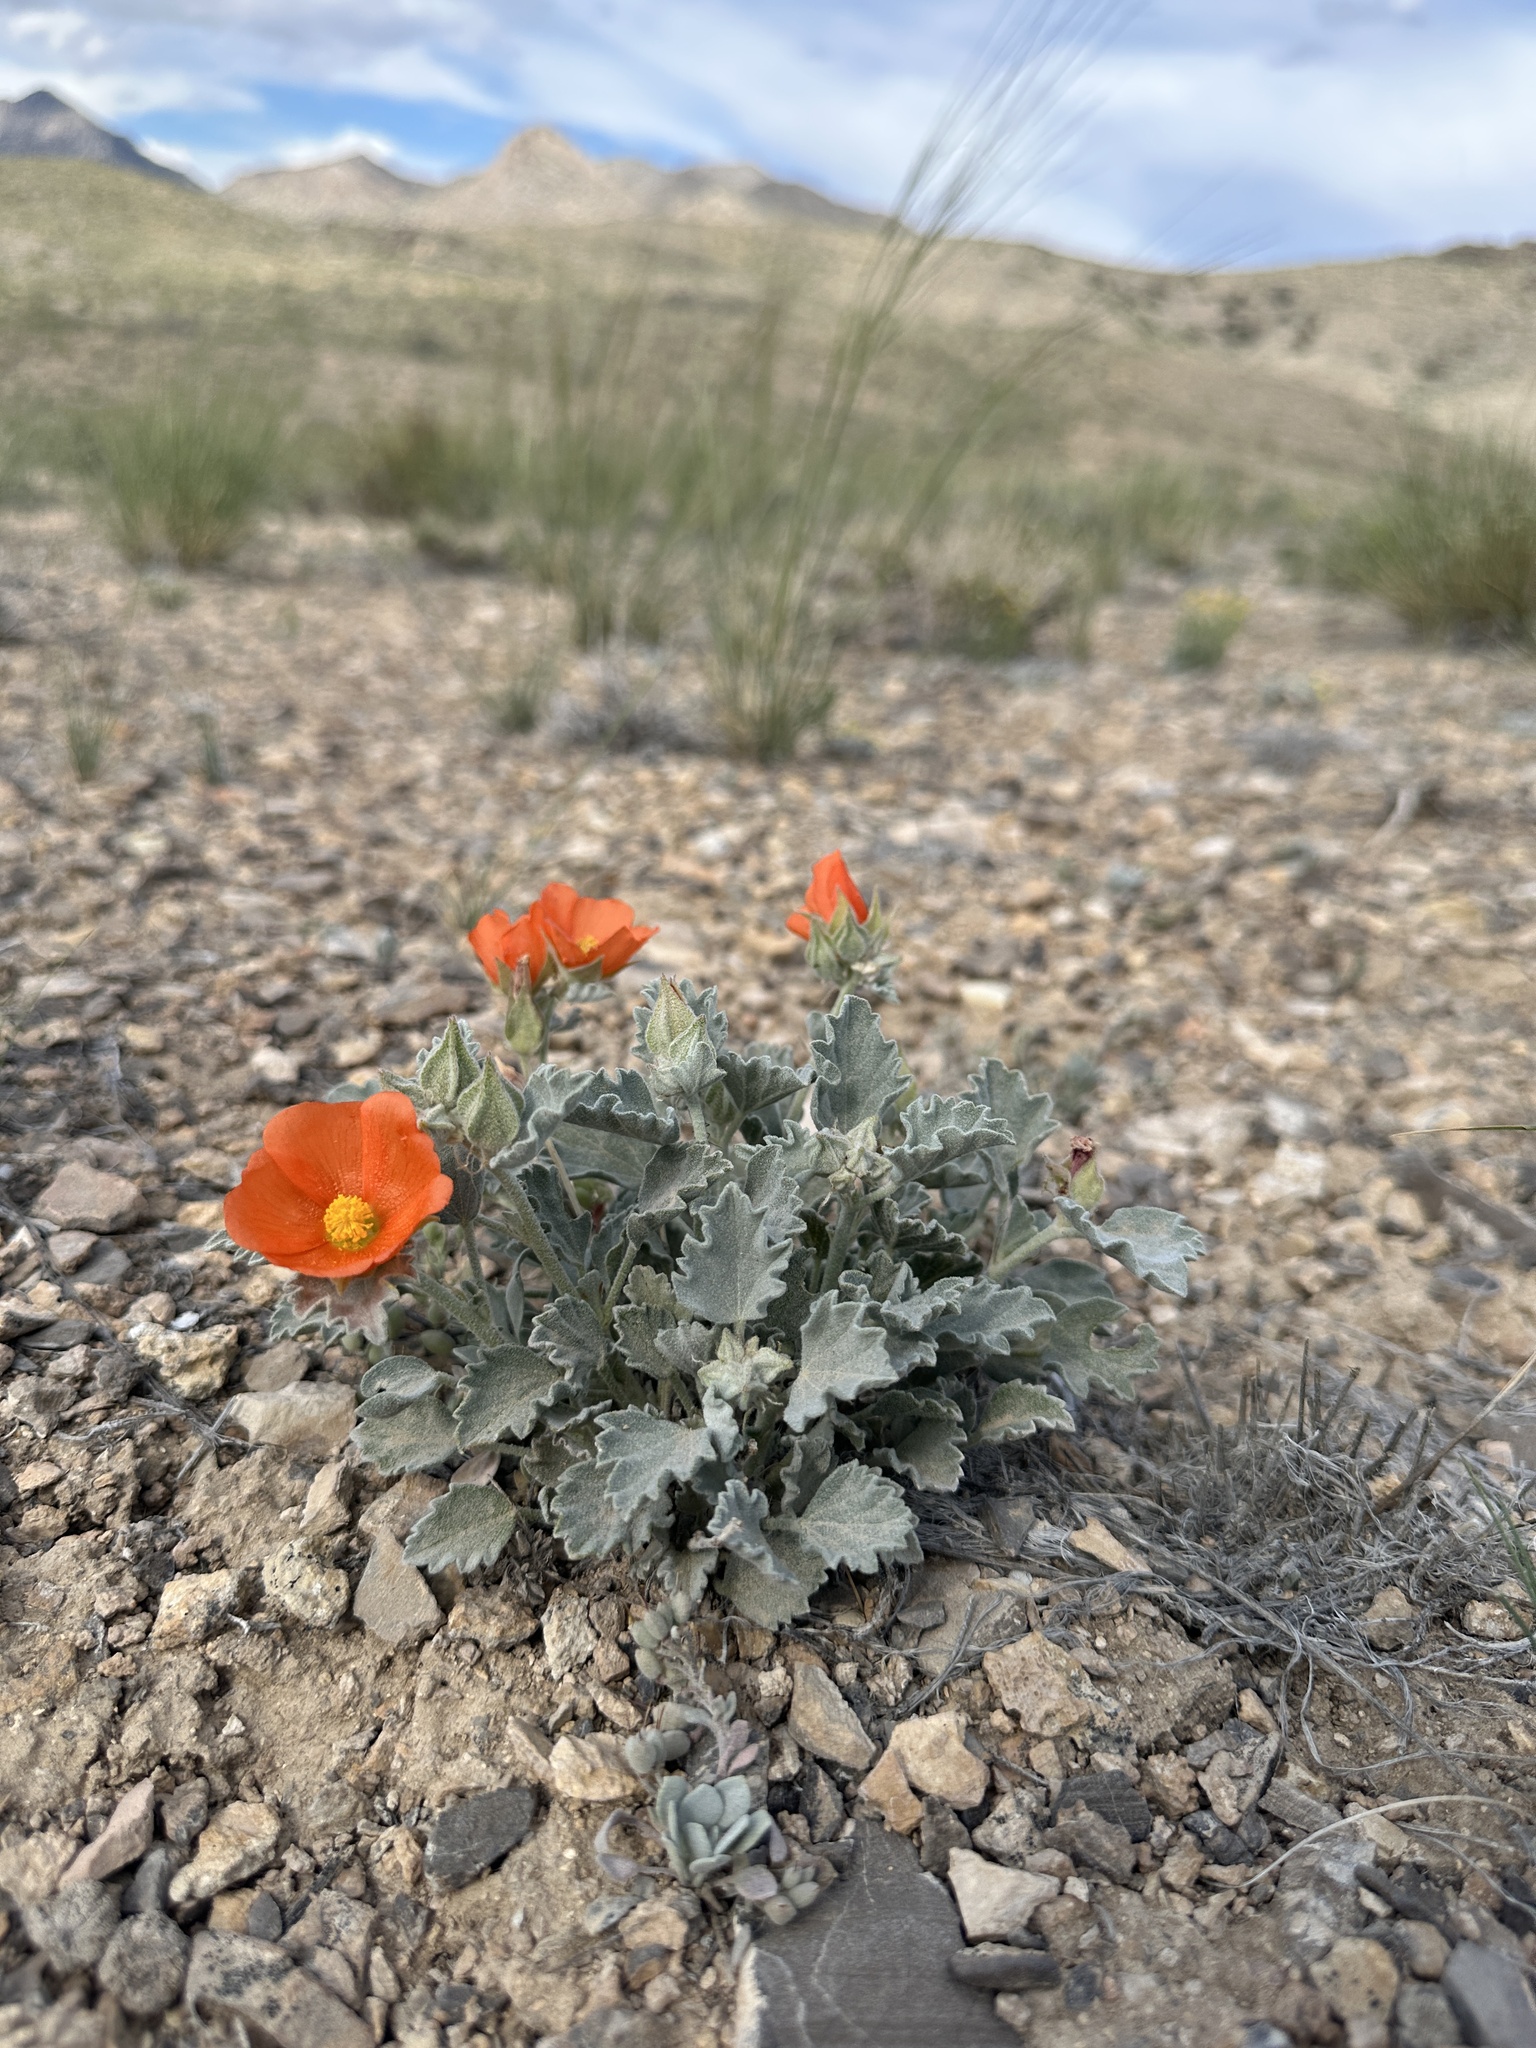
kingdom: Plantae
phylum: Tracheophyta
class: Magnoliopsida
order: Malvales
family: Malvaceae
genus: Sphaeralcea
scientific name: Sphaeralcea caespitosa
